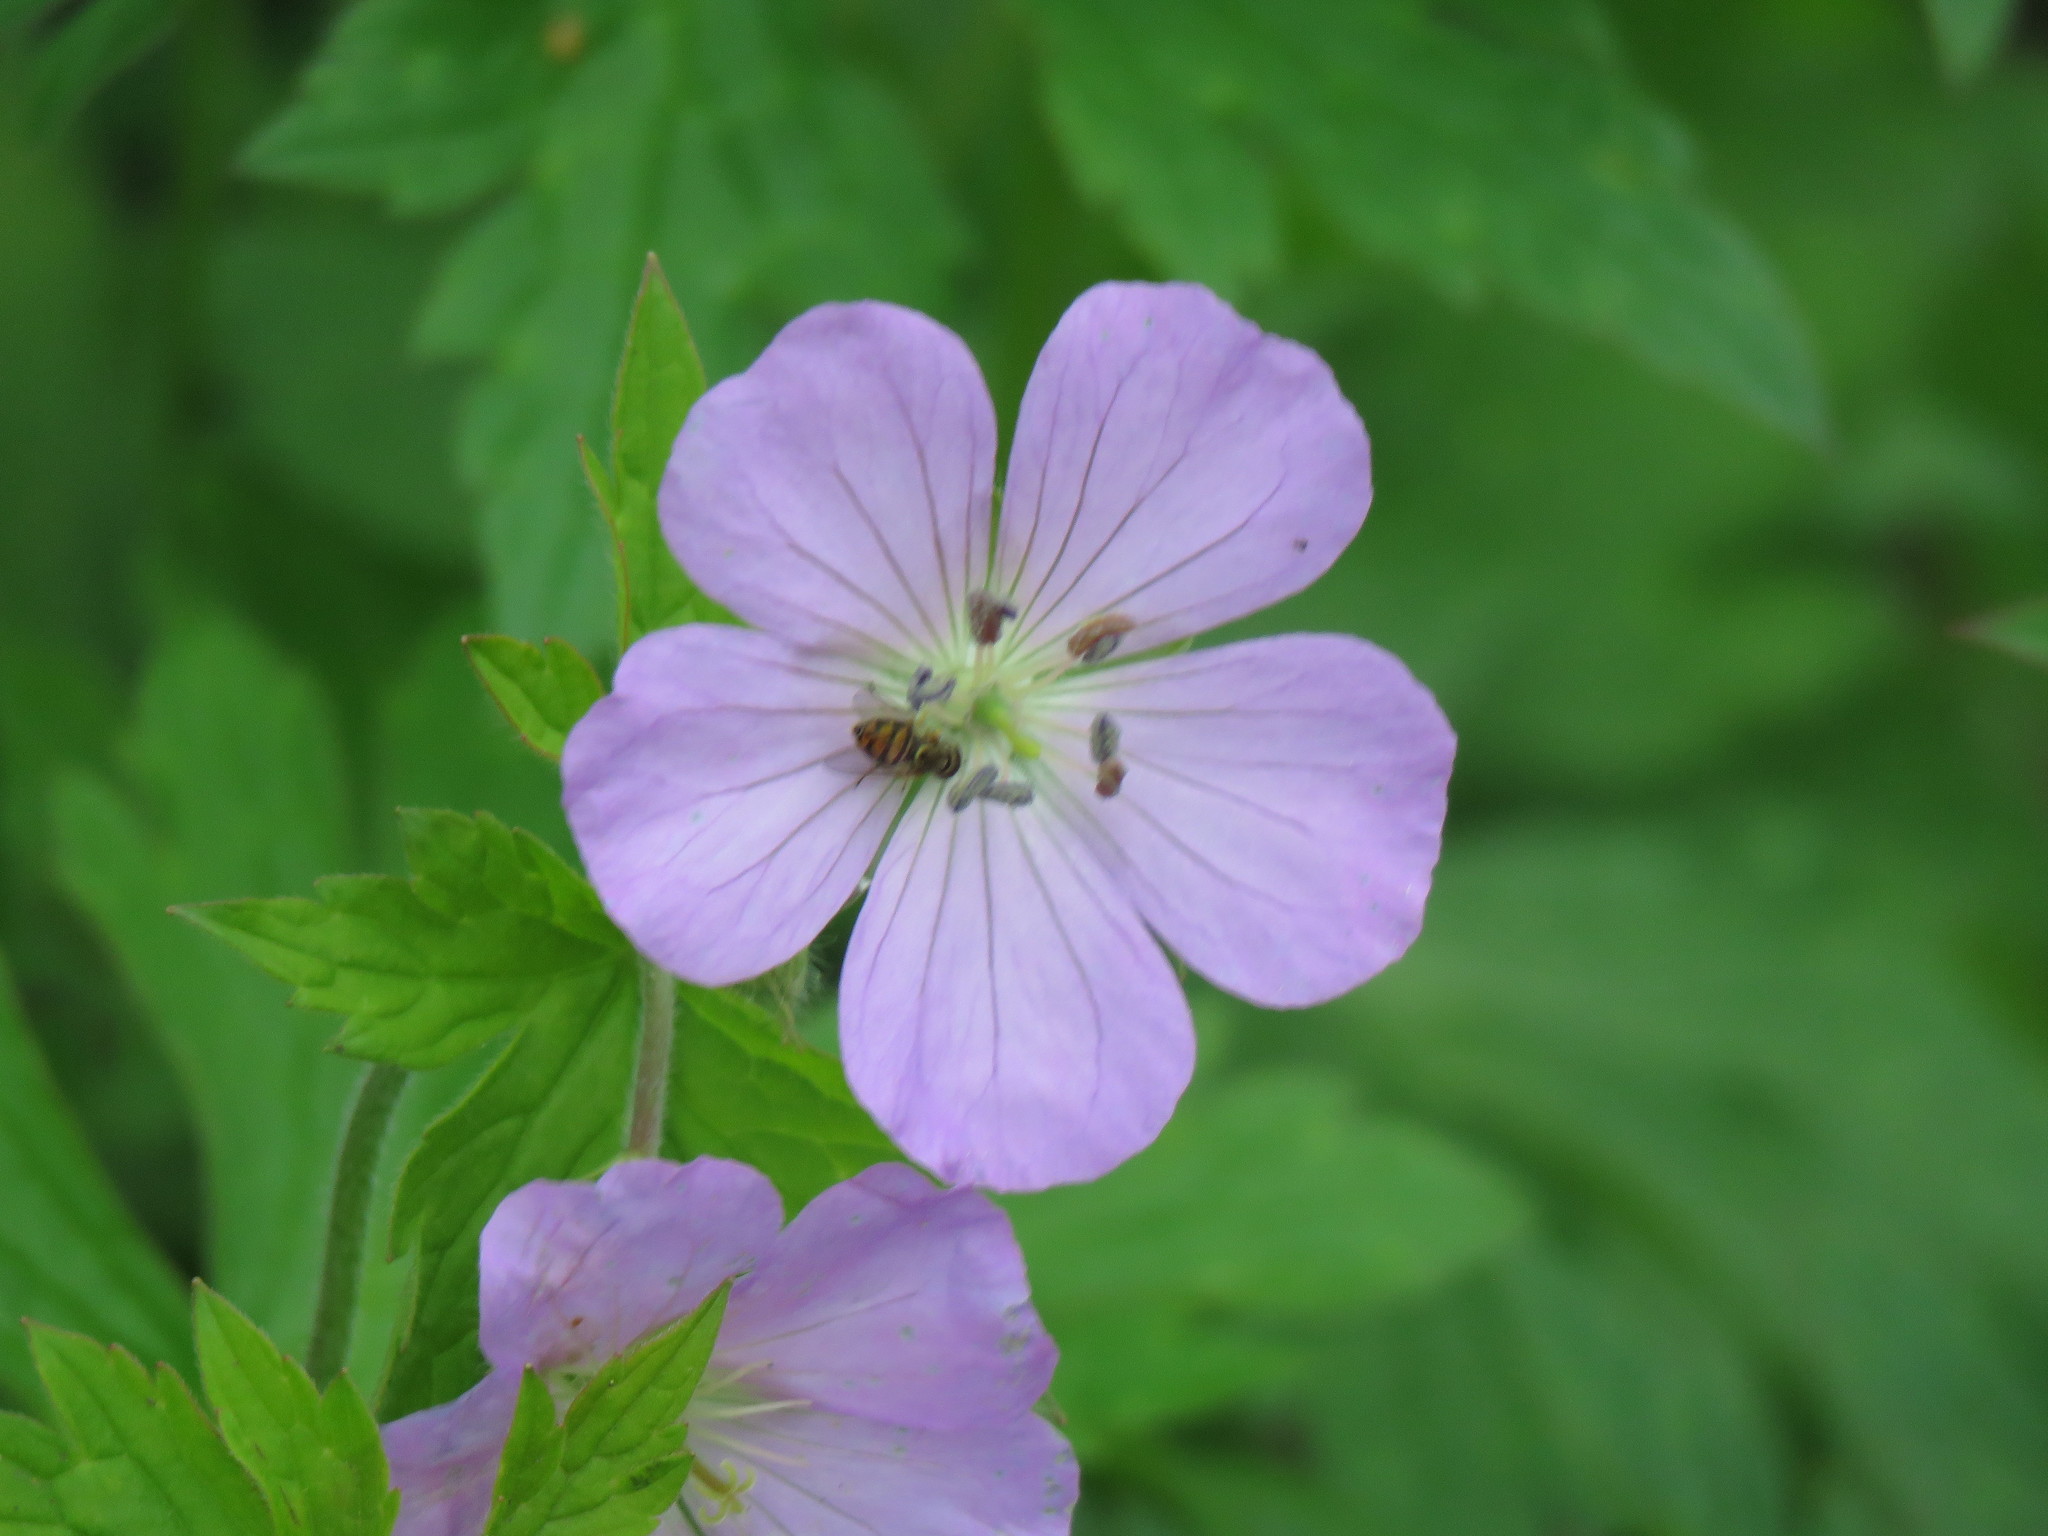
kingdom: Plantae
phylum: Tracheophyta
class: Magnoliopsida
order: Geraniales
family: Geraniaceae
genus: Geranium
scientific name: Geranium maculatum
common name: Spotted geranium
